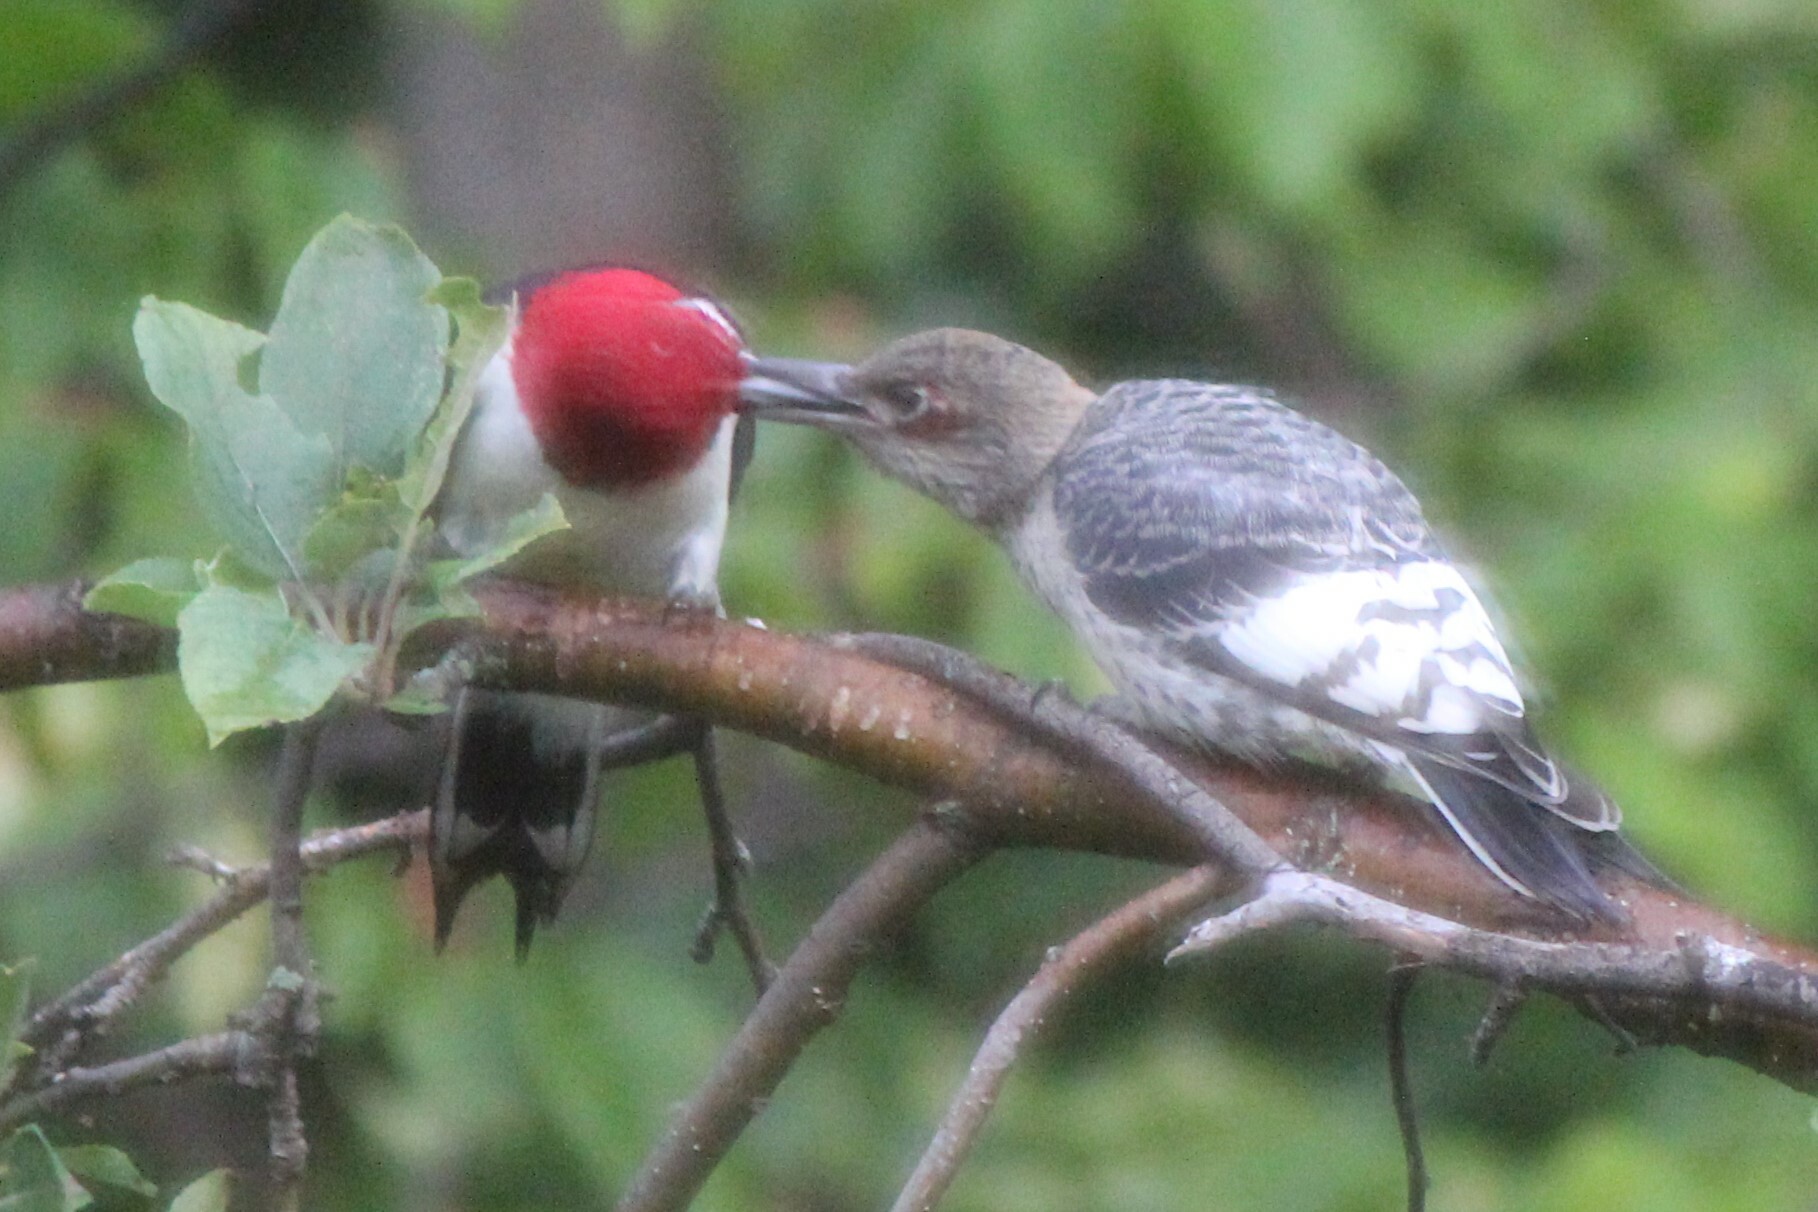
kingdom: Animalia
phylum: Chordata
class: Aves
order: Piciformes
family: Picidae
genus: Melanerpes
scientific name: Melanerpes erythrocephalus
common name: Red-headed woodpecker
